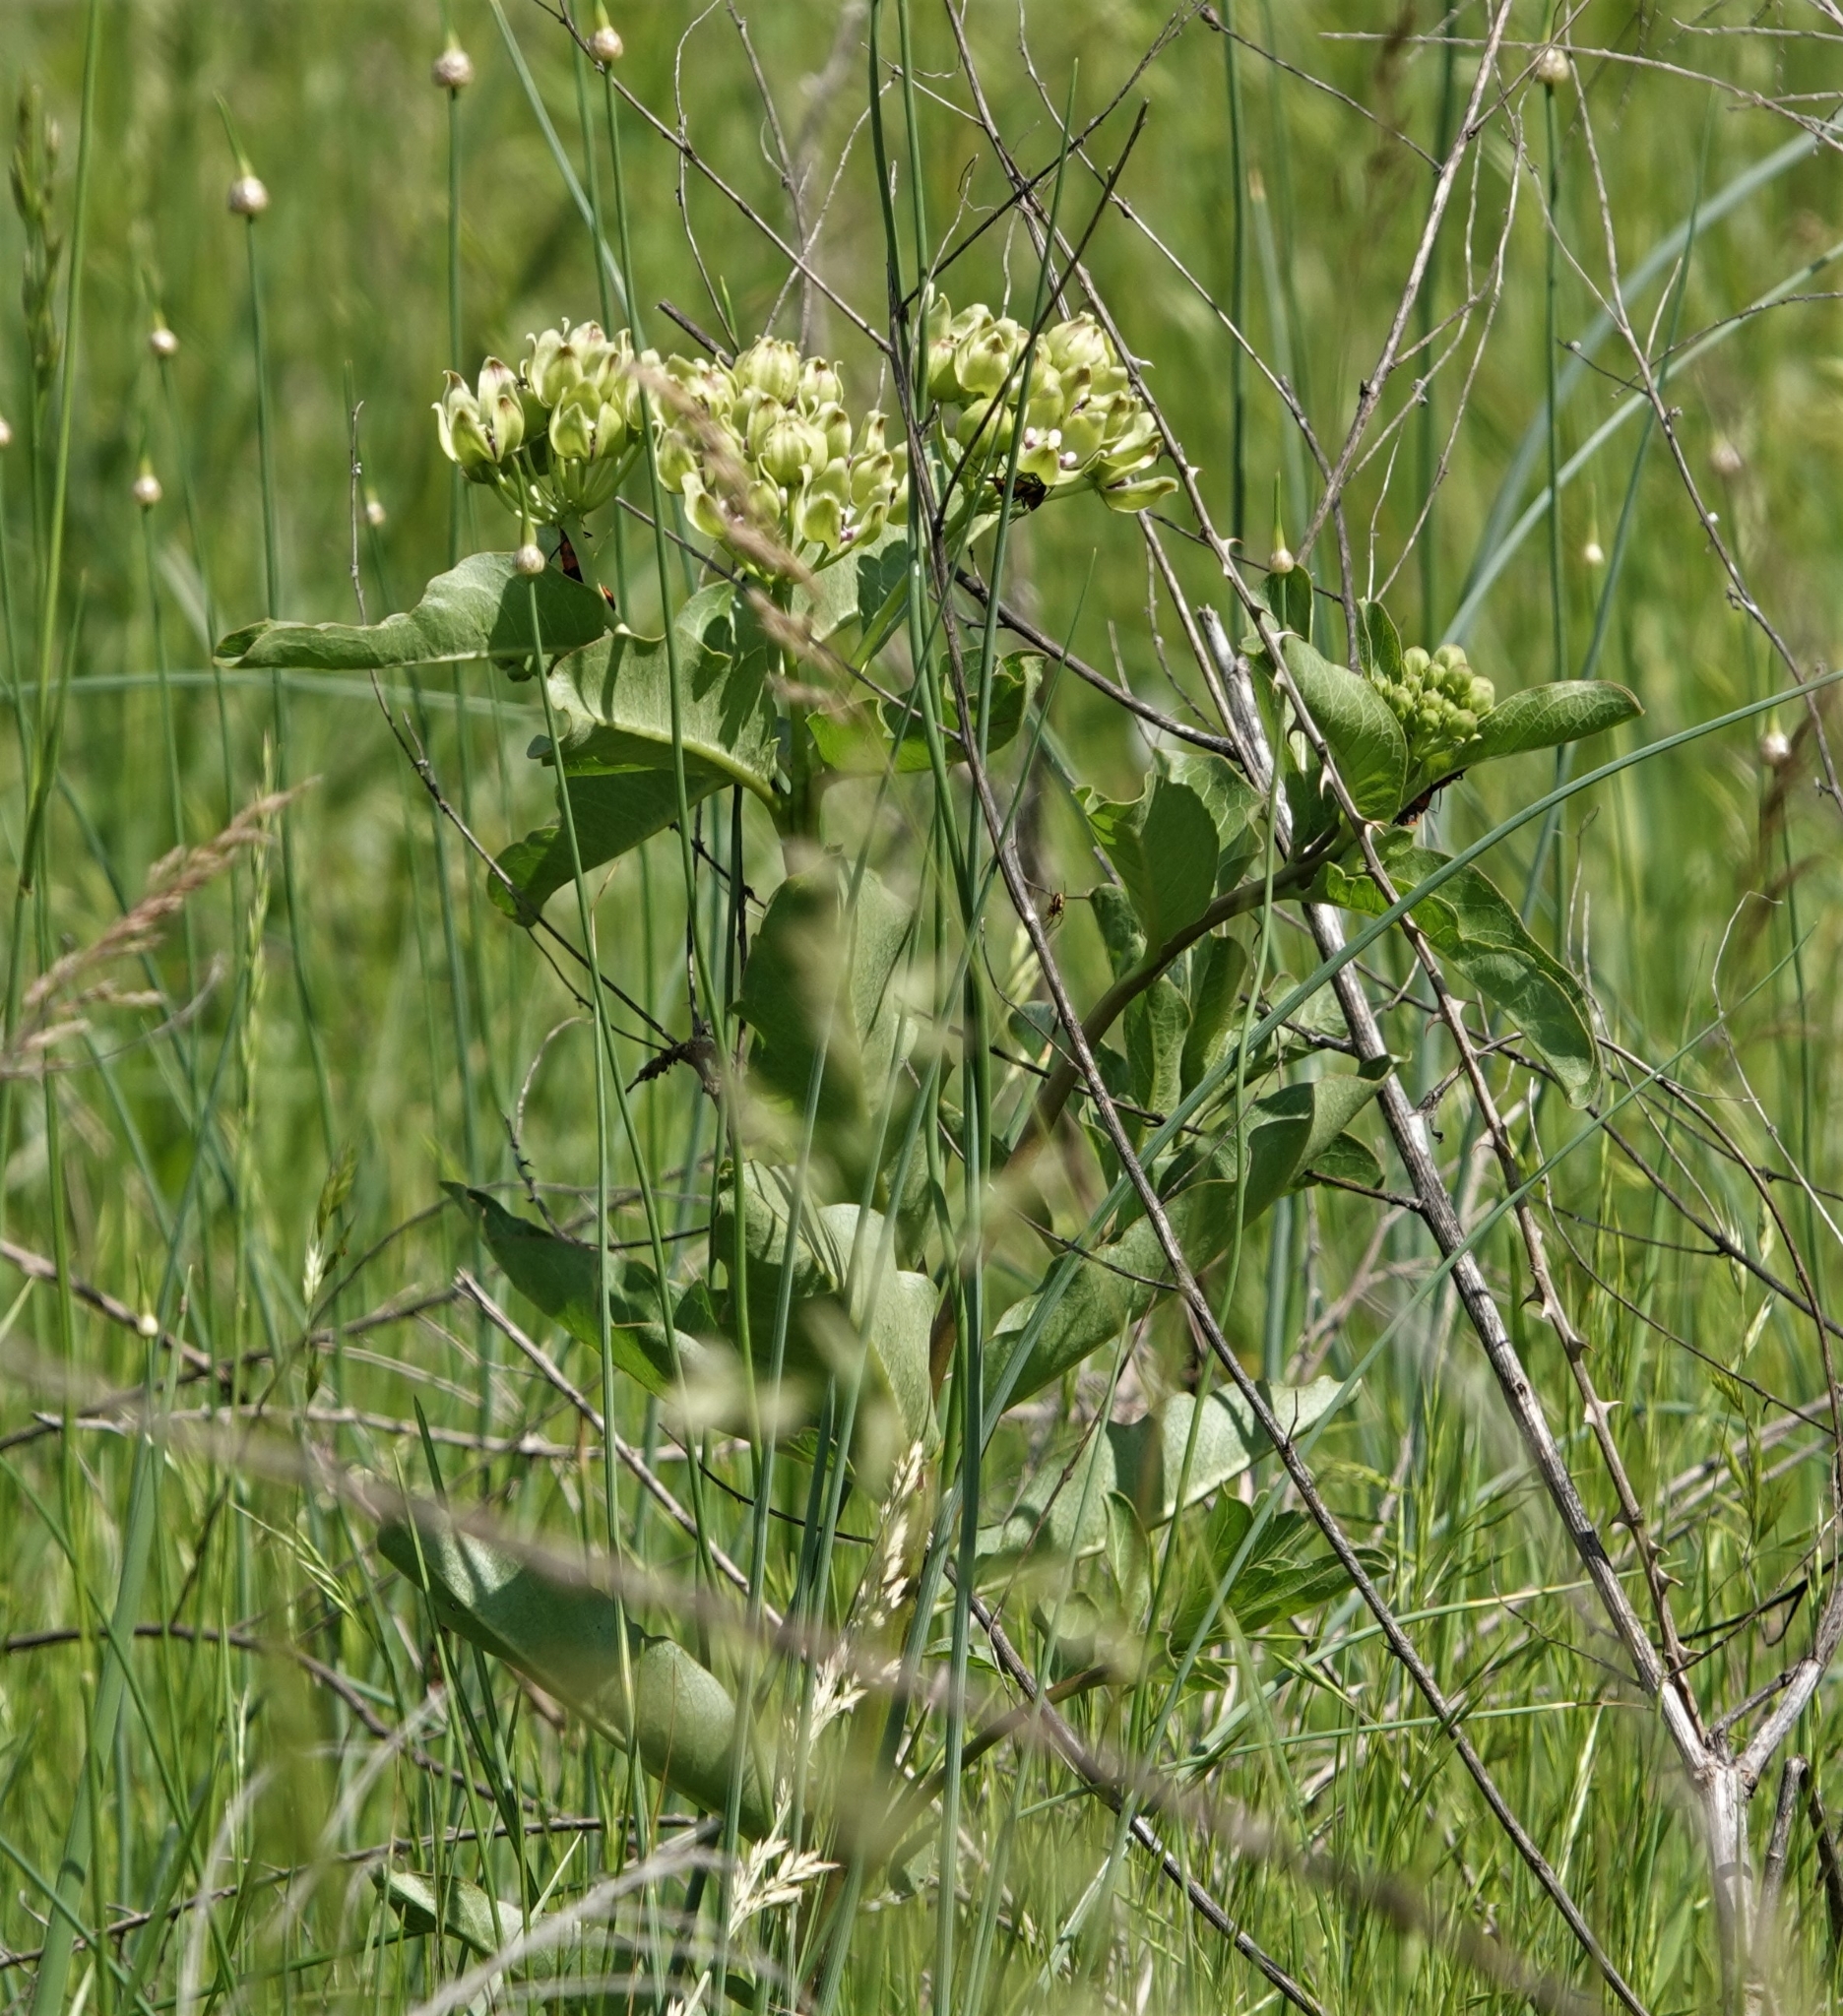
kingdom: Plantae
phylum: Tracheophyta
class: Magnoliopsida
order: Gentianales
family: Apocynaceae
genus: Asclepias
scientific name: Asclepias viridis
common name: Antelope-horns
